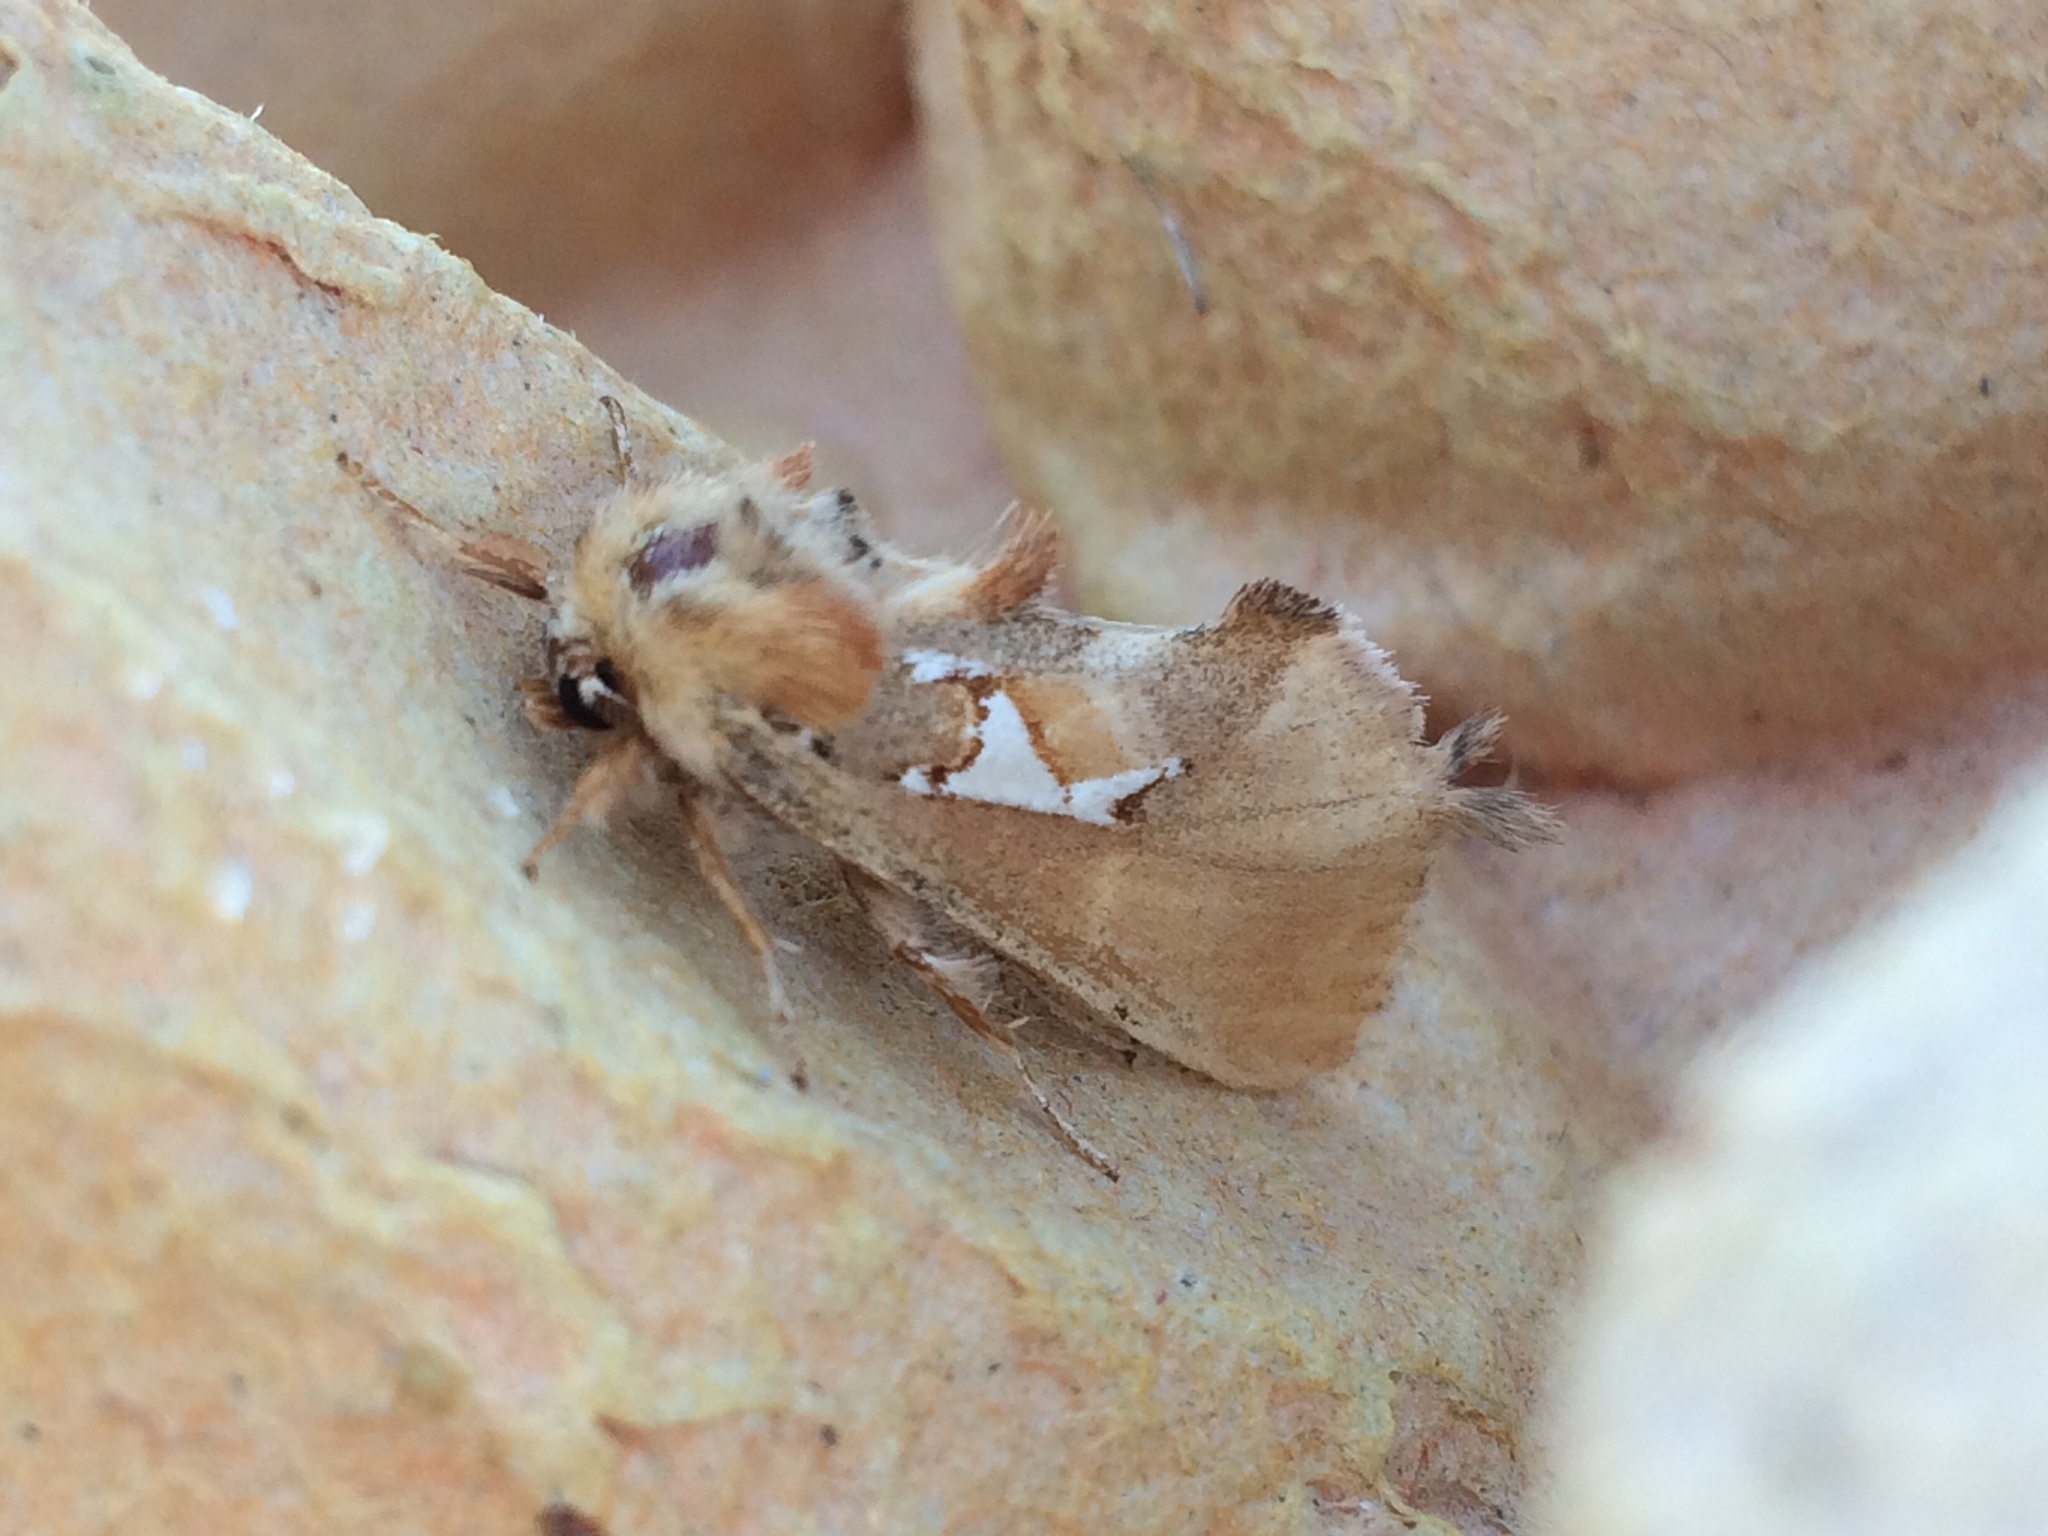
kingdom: Animalia
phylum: Arthropoda
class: Insecta
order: Lepidoptera
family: Notodontidae
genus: Spatalia
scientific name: Spatalia argentina
